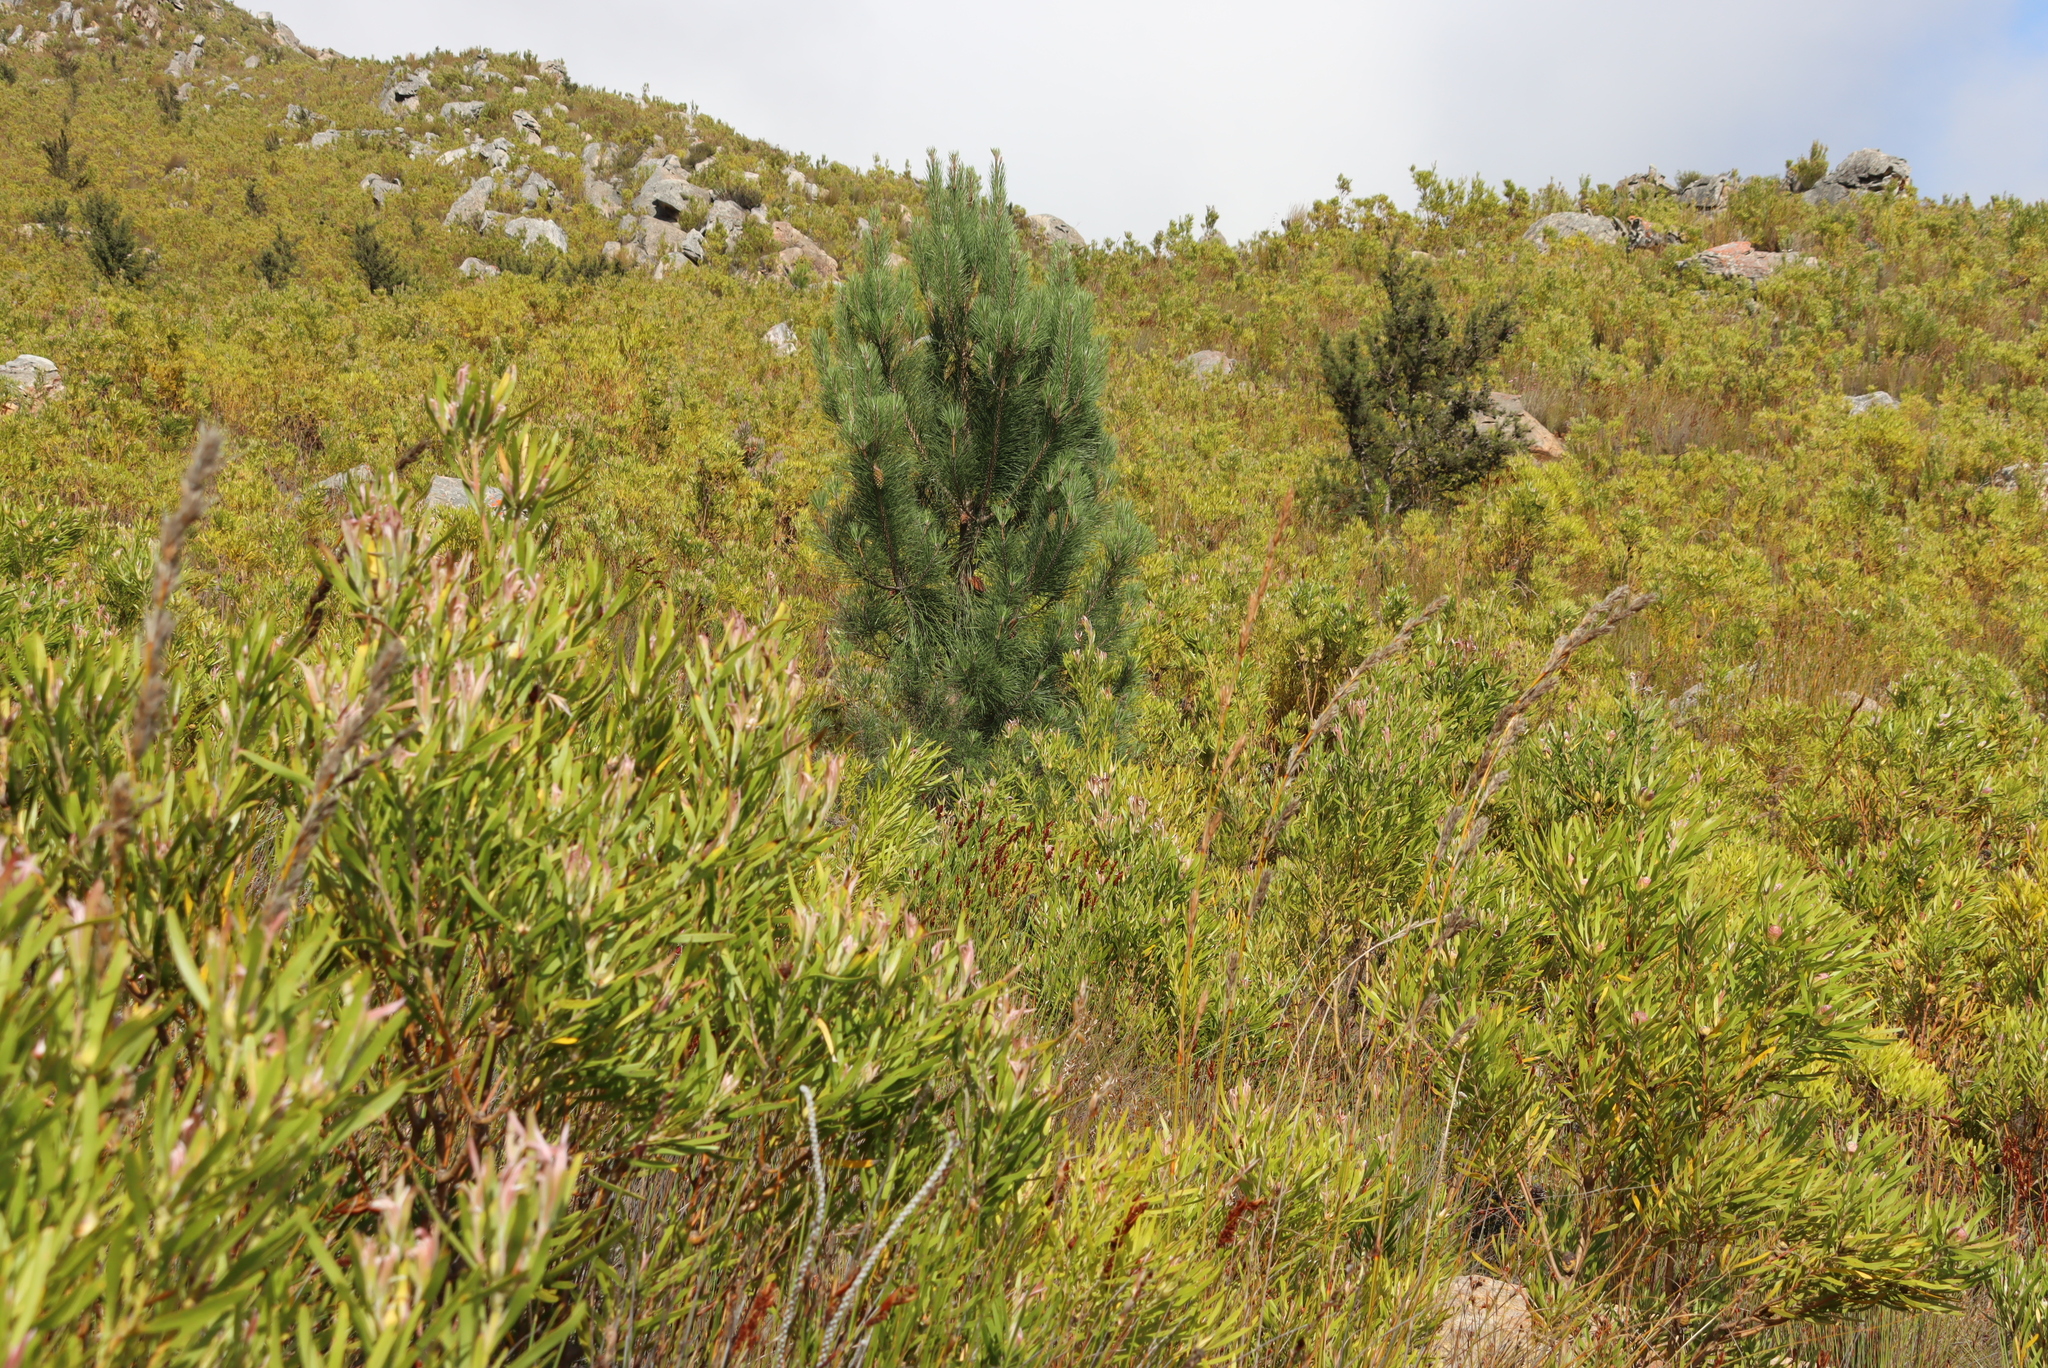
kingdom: Plantae
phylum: Tracheophyta
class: Magnoliopsida
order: Proteales
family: Proteaceae
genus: Hakea
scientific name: Hakea sericea
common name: Needle bush
